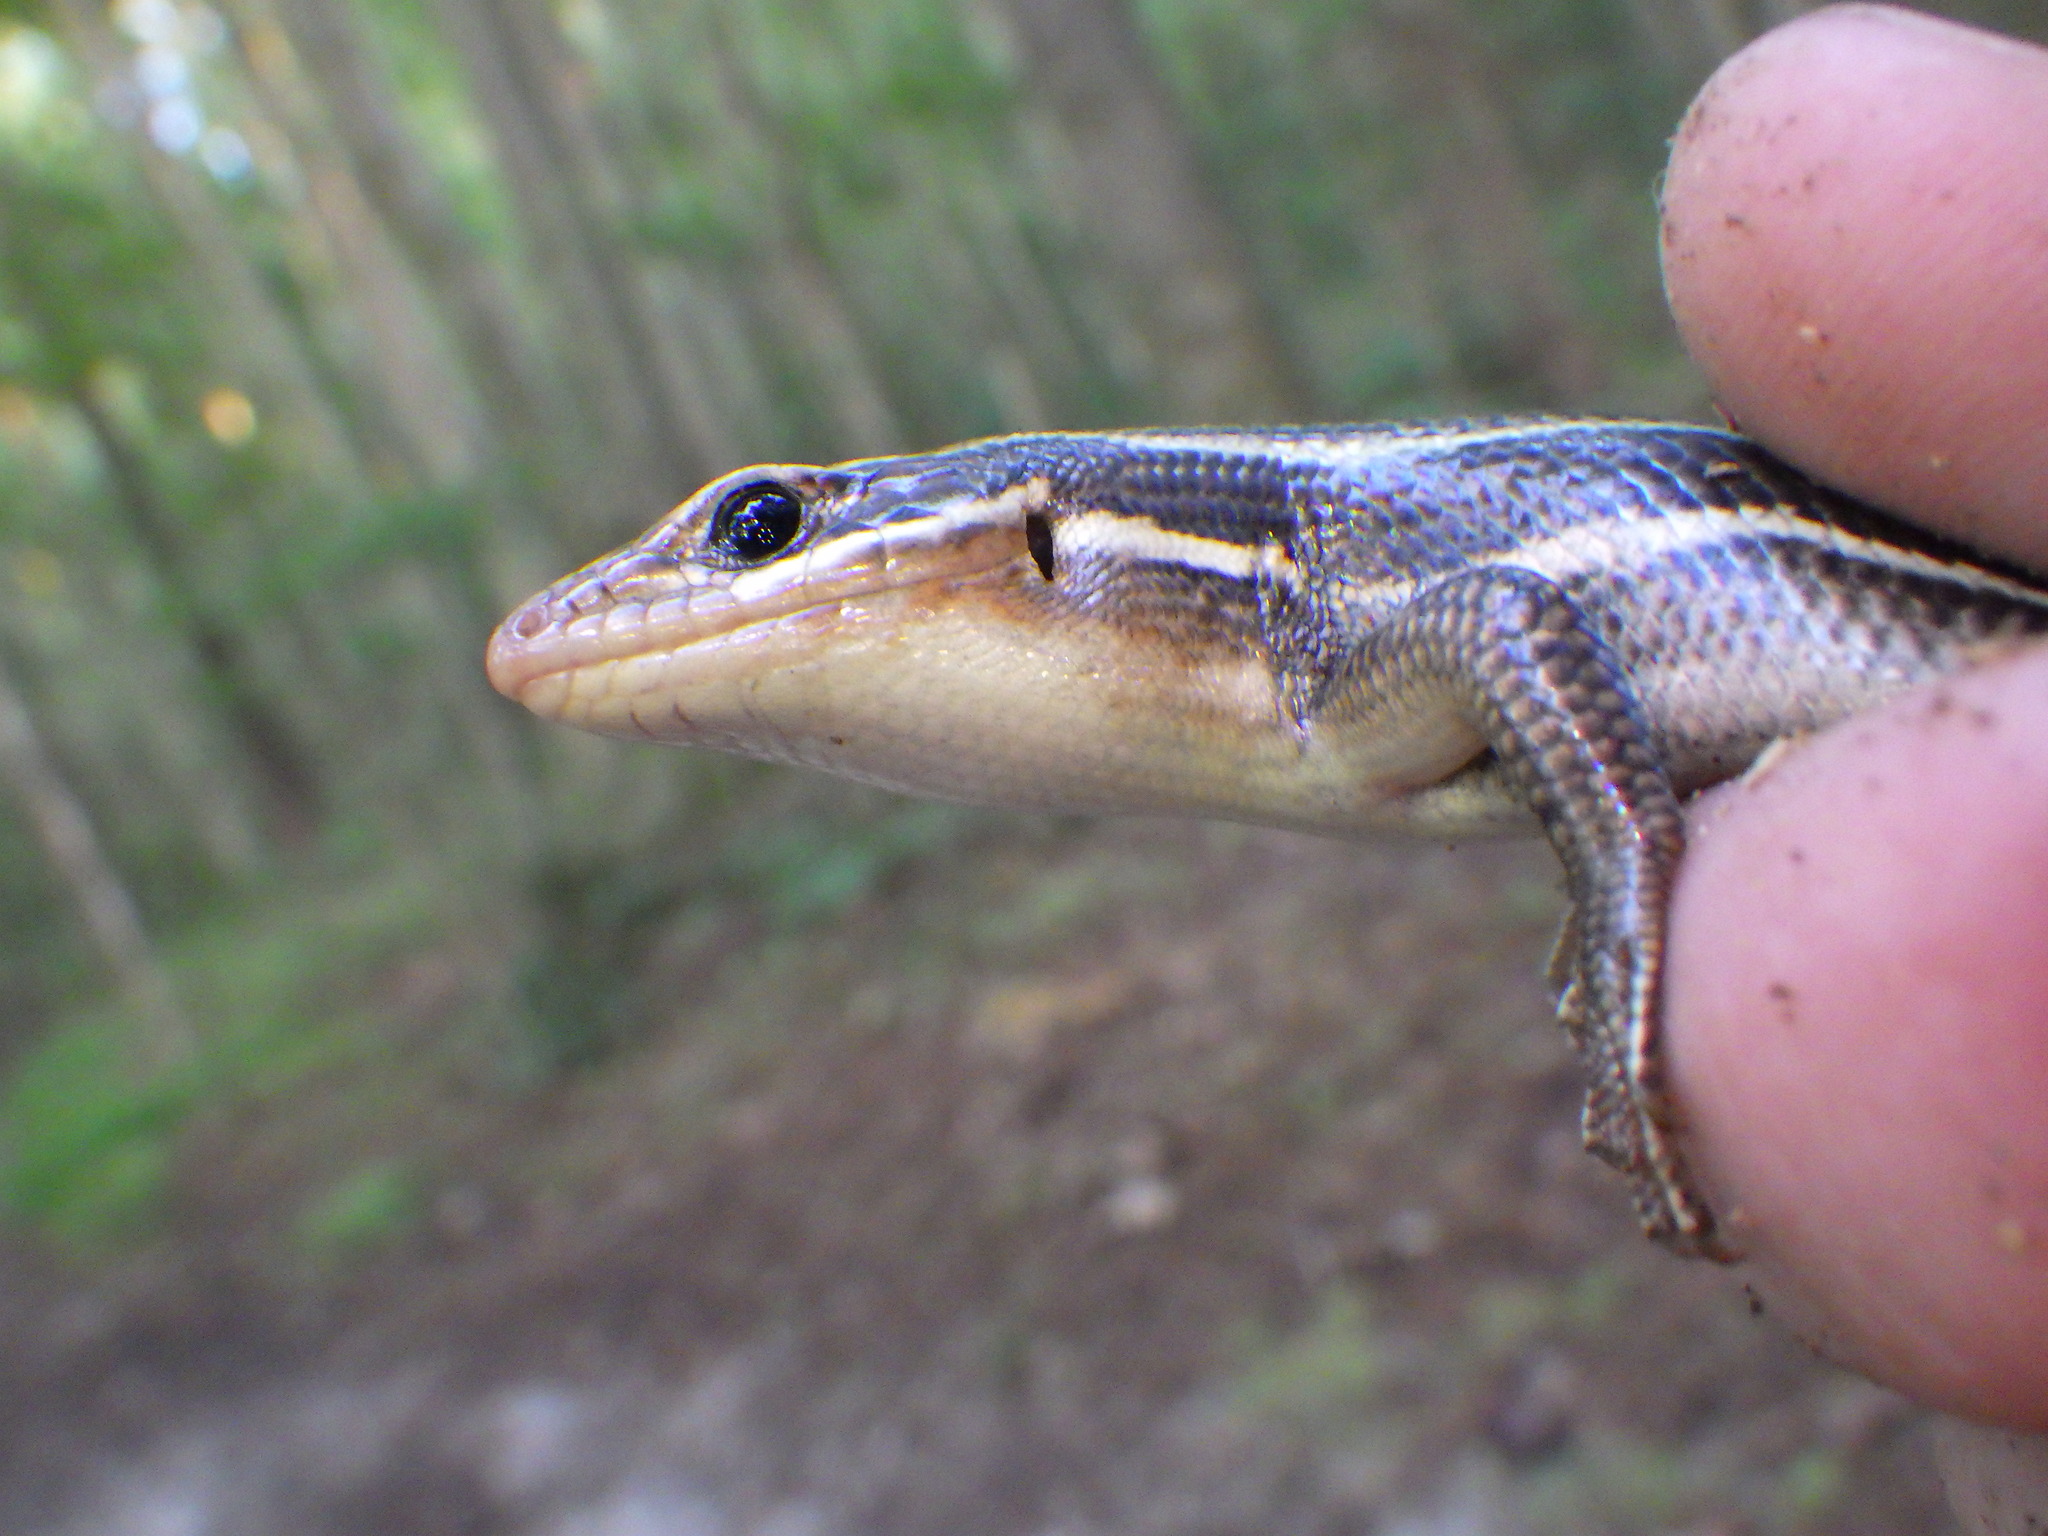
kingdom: Animalia
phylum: Chordata
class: Squamata
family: Scincidae
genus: Plestiodon
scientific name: Plestiodon laticeps
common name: Broadhead skink
